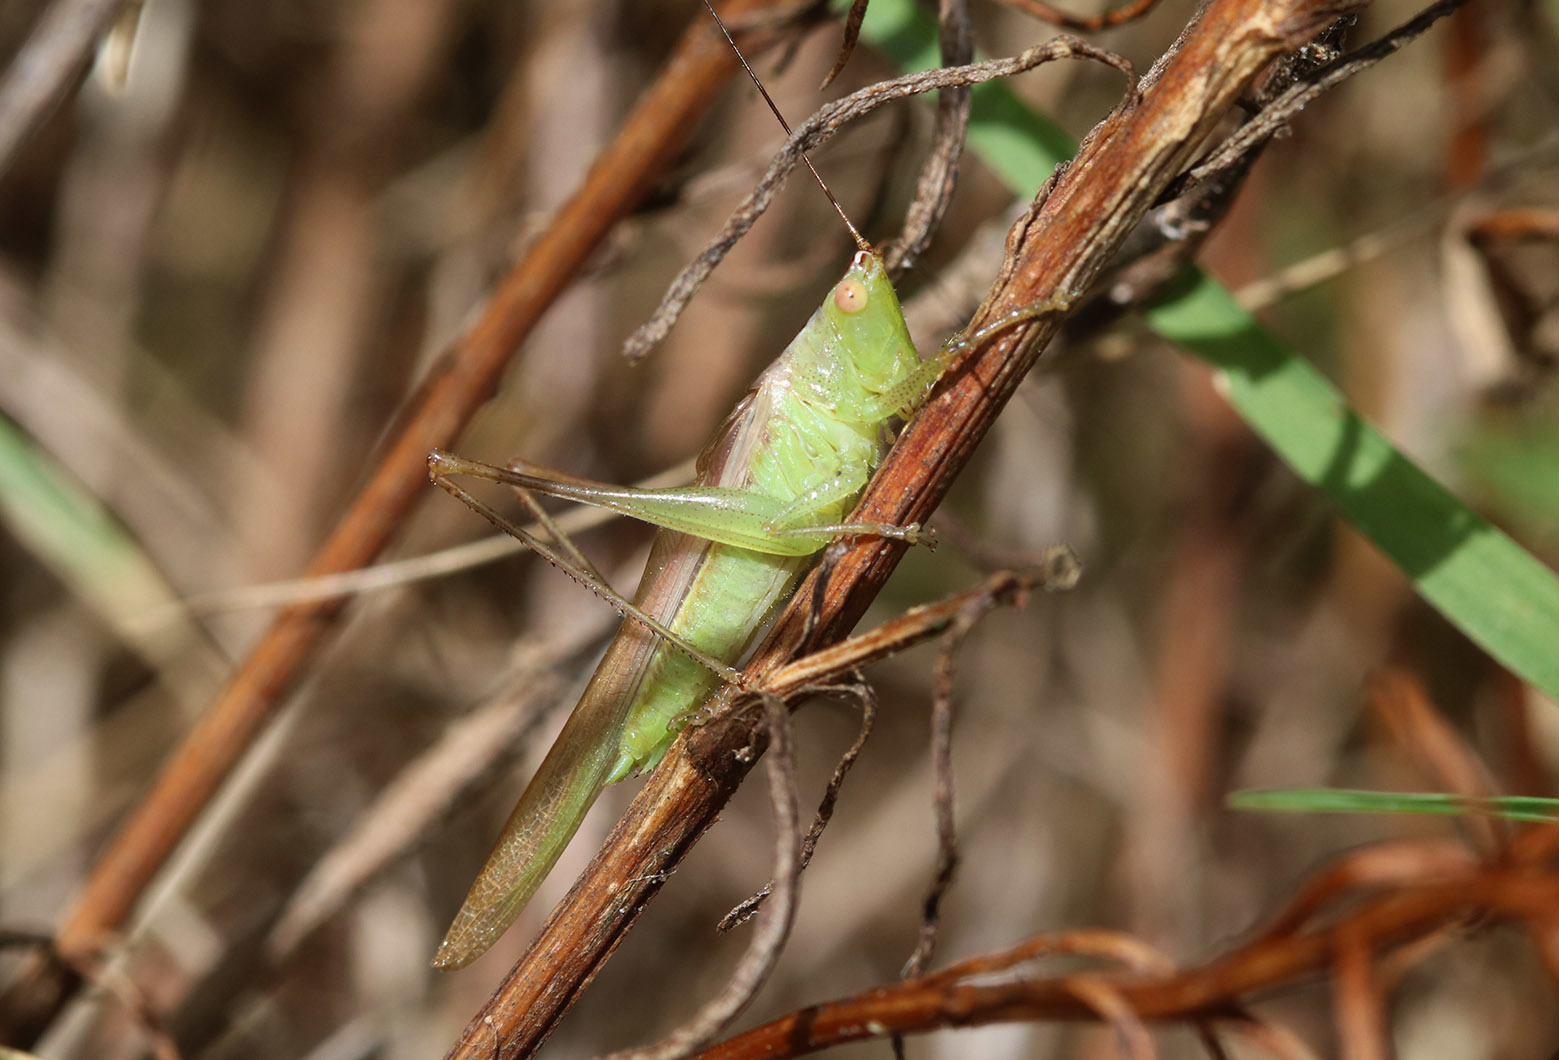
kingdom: Animalia
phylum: Arthropoda
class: Insecta
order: Orthoptera
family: Tettigoniidae
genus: Conocephalus
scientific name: Conocephalus longipes
